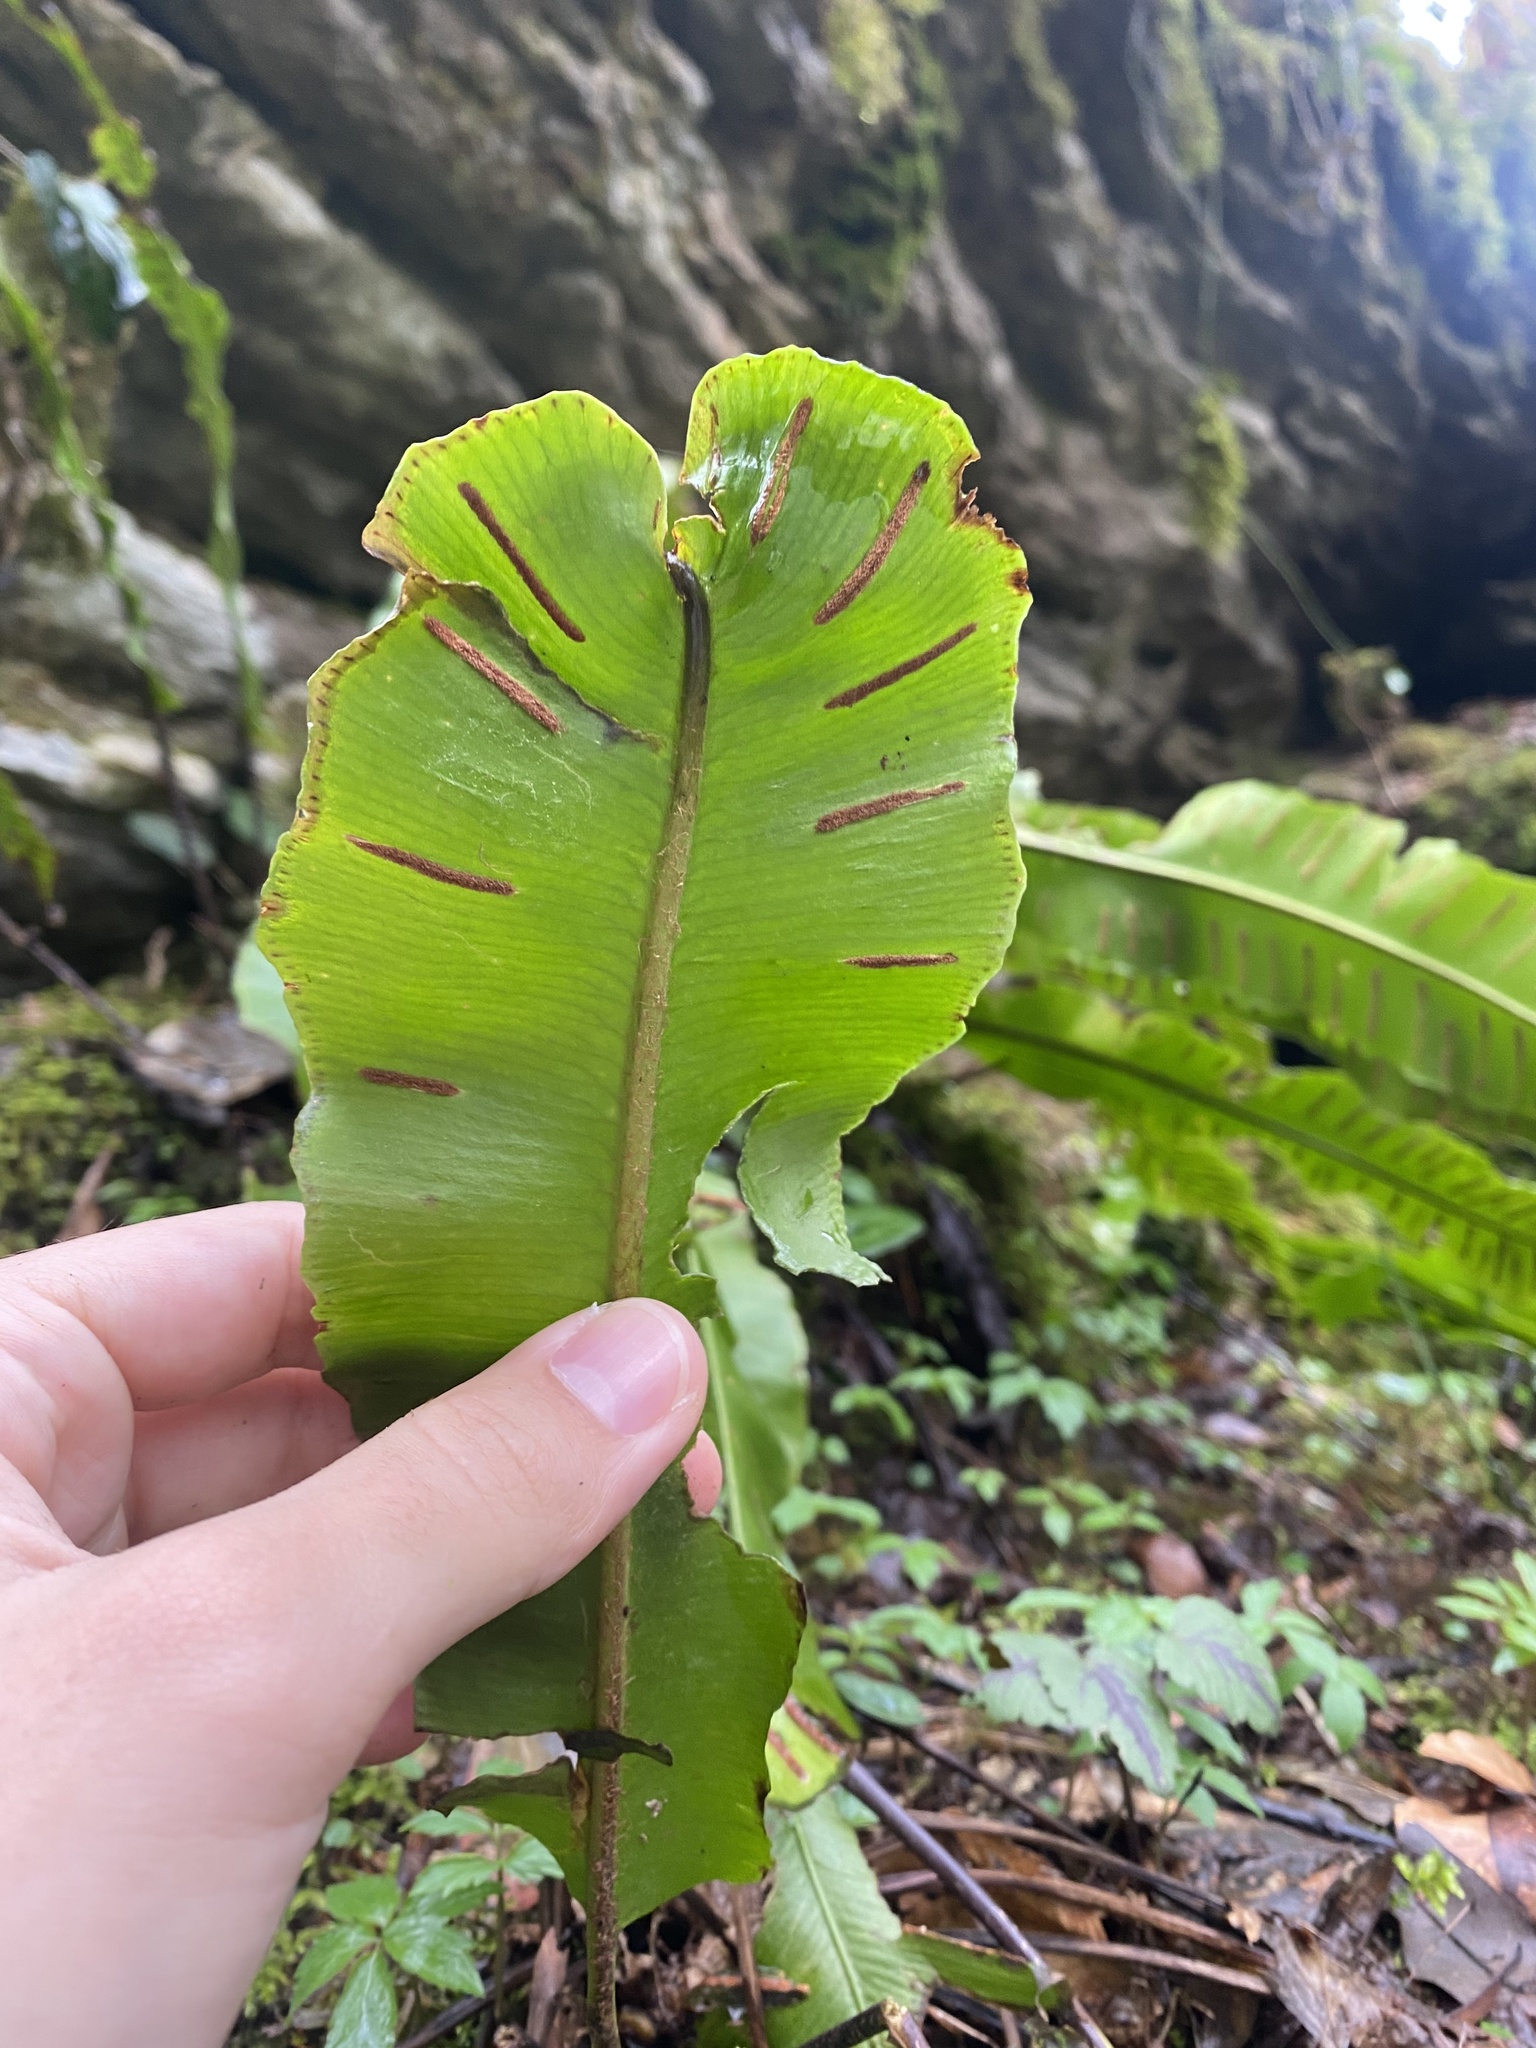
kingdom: Plantae
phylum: Tracheophyta
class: Polypodiopsida
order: Polypodiales
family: Aspleniaceae
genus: Asplenium
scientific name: Asplenium scolopendrium
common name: Hart's-tongue fern
